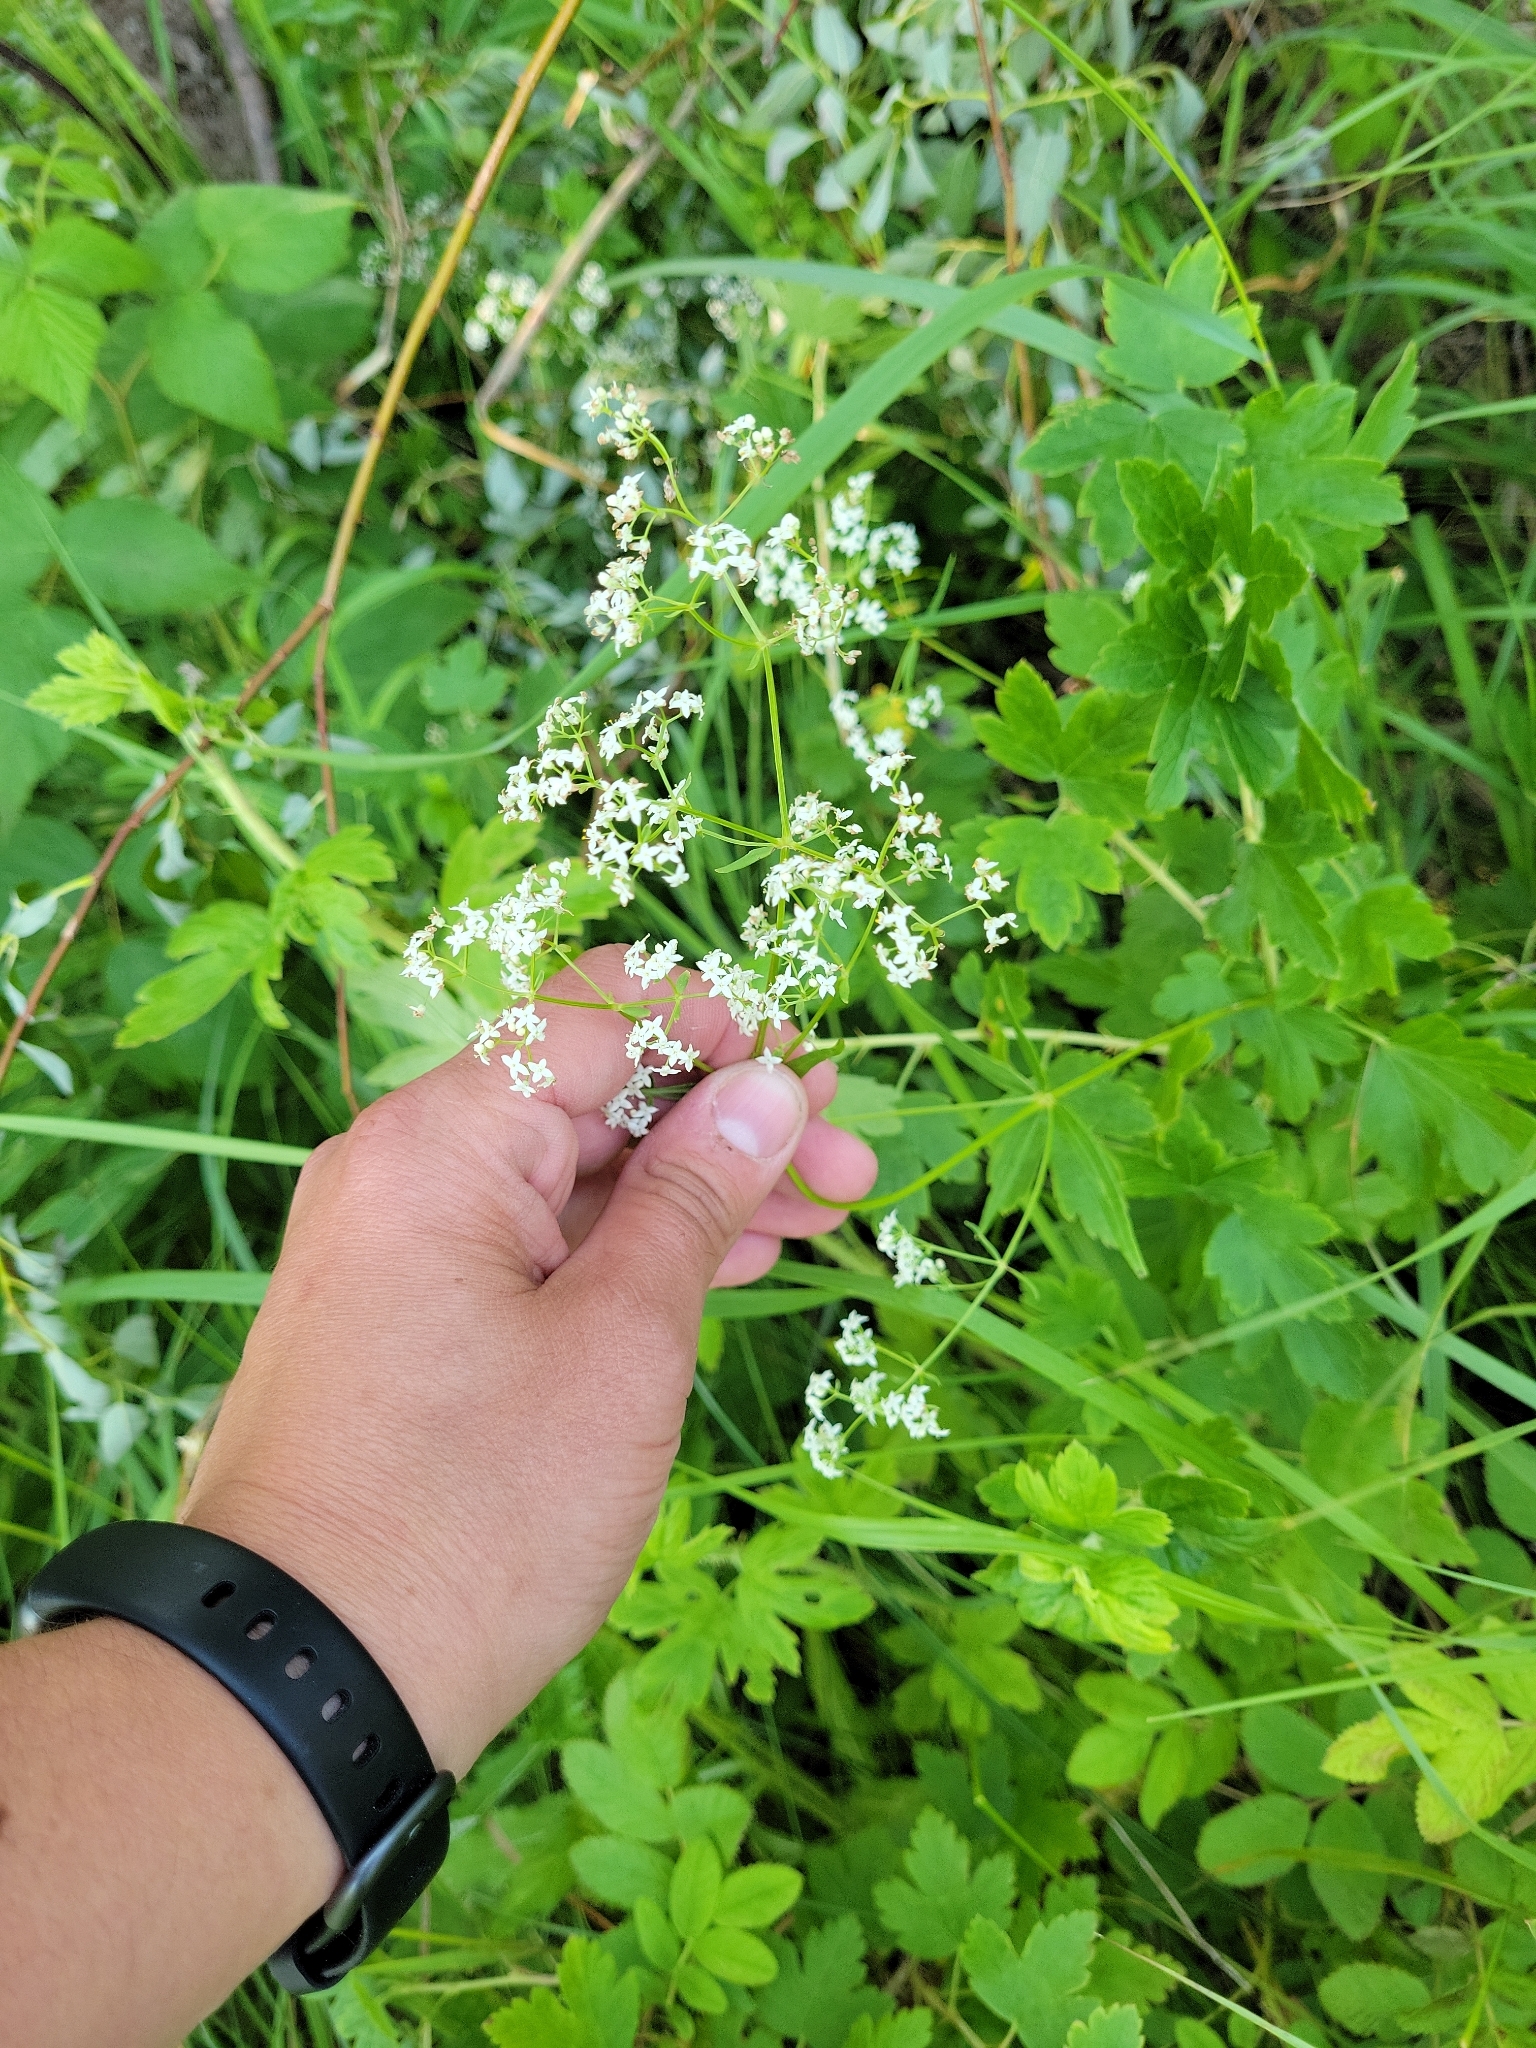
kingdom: Plantae
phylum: Tracheophyta
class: Magnoliopsida
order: Gentianales
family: Rubiaceae
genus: Galium
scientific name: Galium boreale
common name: Northern bedstraw
